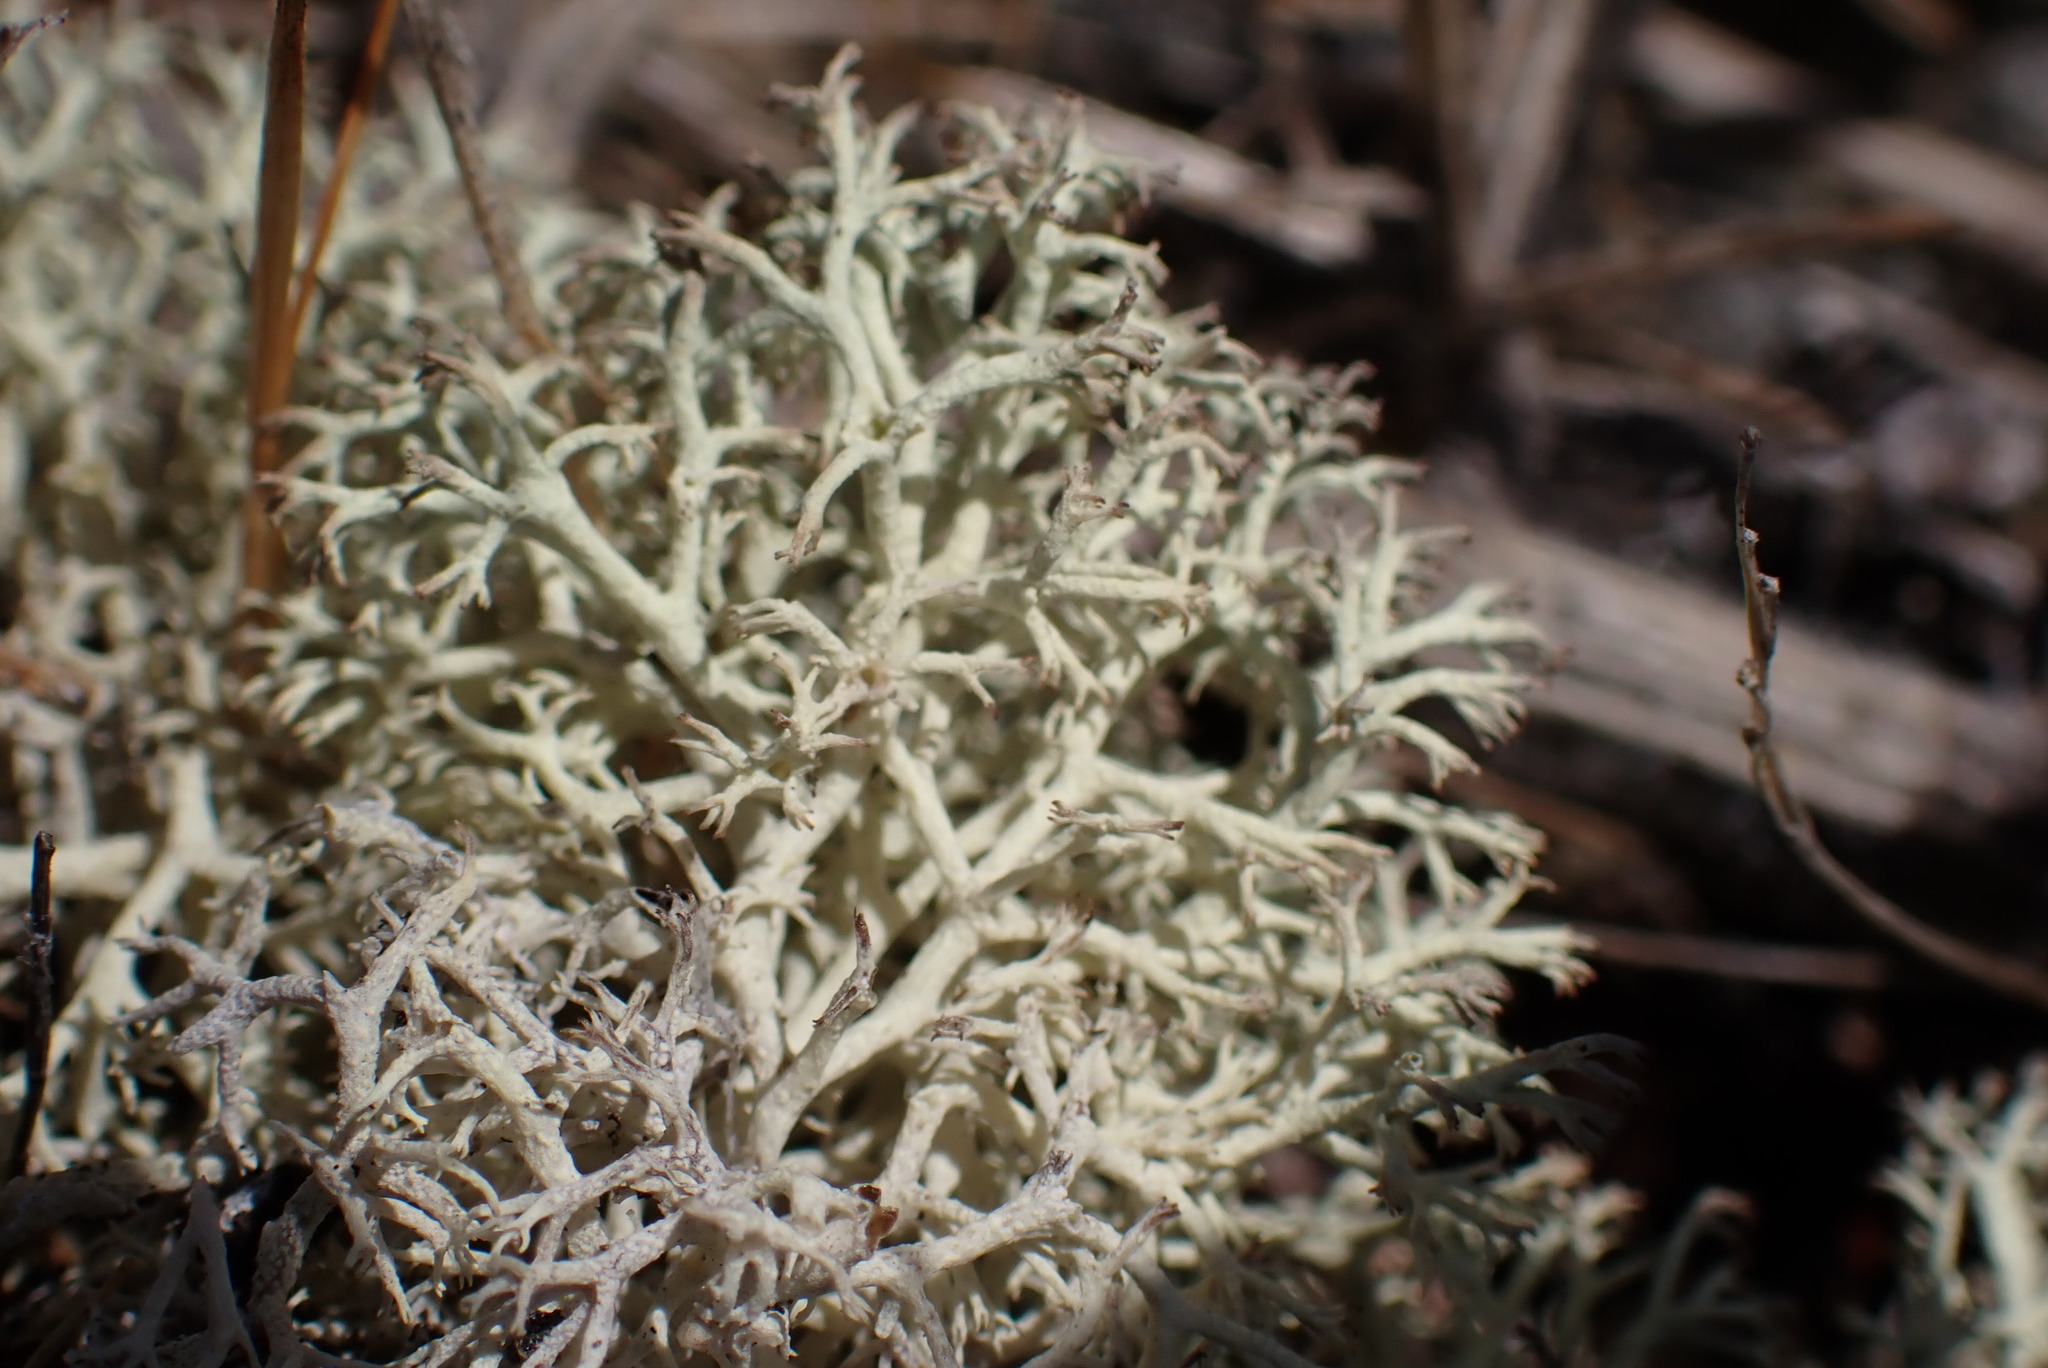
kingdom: Fungi
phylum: Ascomycota
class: Lecanoromycetes
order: Lecanorales
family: Cladoniaceae
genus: Cladonia
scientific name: Cladonia portentosa
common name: Reindeer lichen
